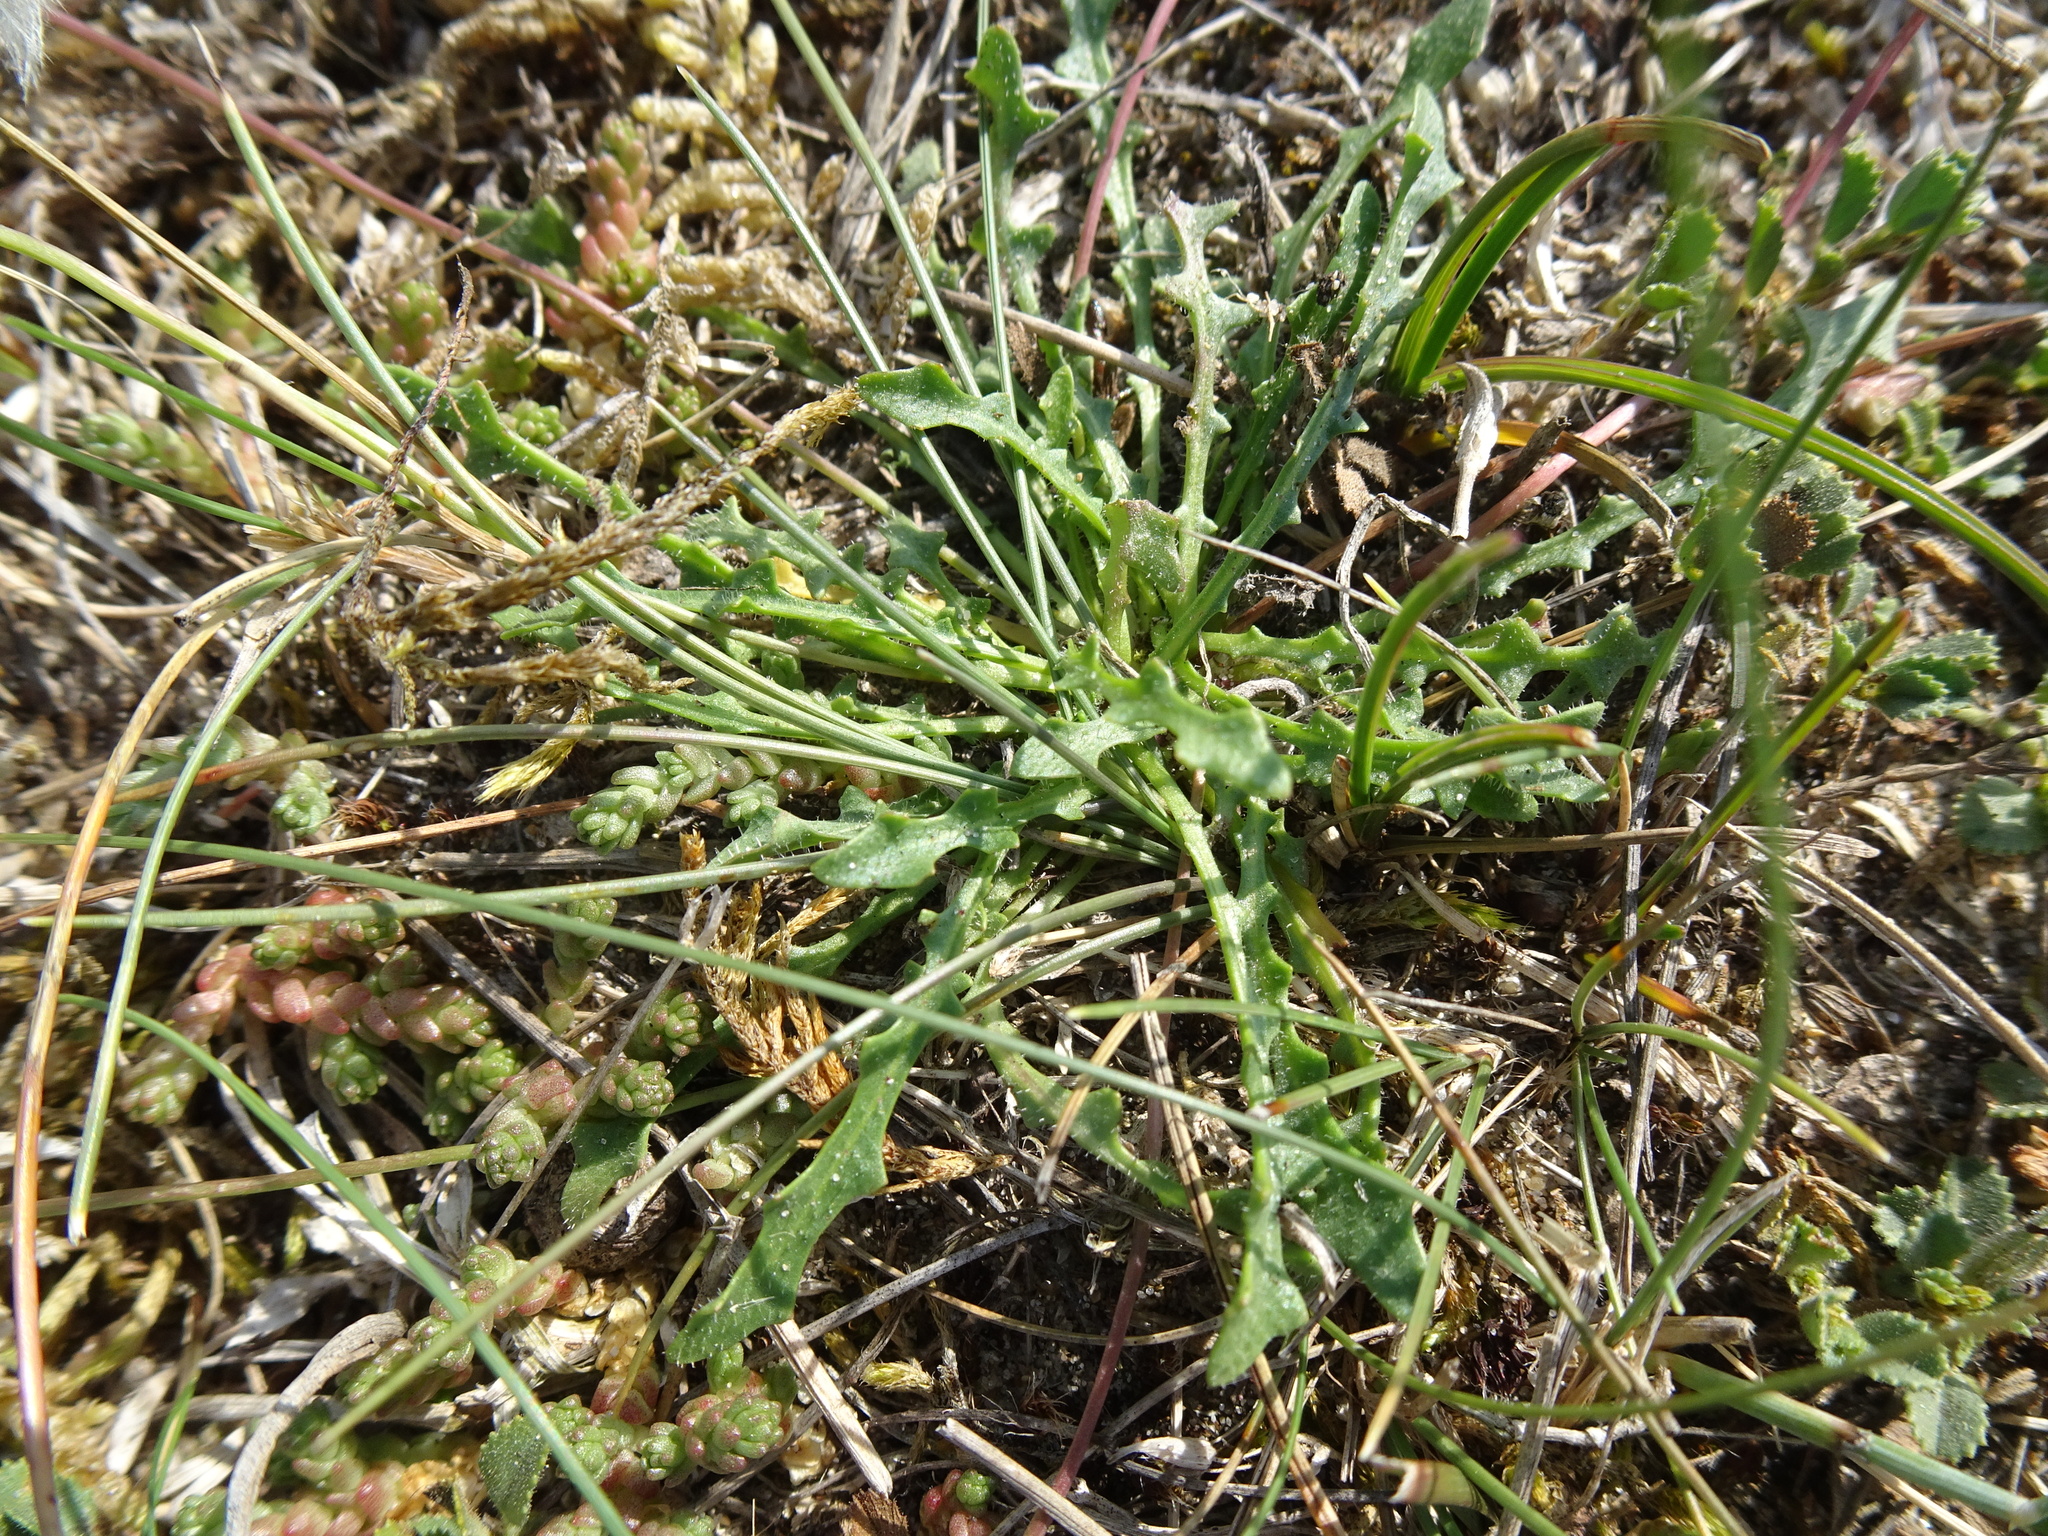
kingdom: Plantae
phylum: Tracheophyta
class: Magnoliopsida
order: Asterales
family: Asteraceae
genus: Hypochaeris
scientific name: Hypochaeris radicata
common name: Flatweed
